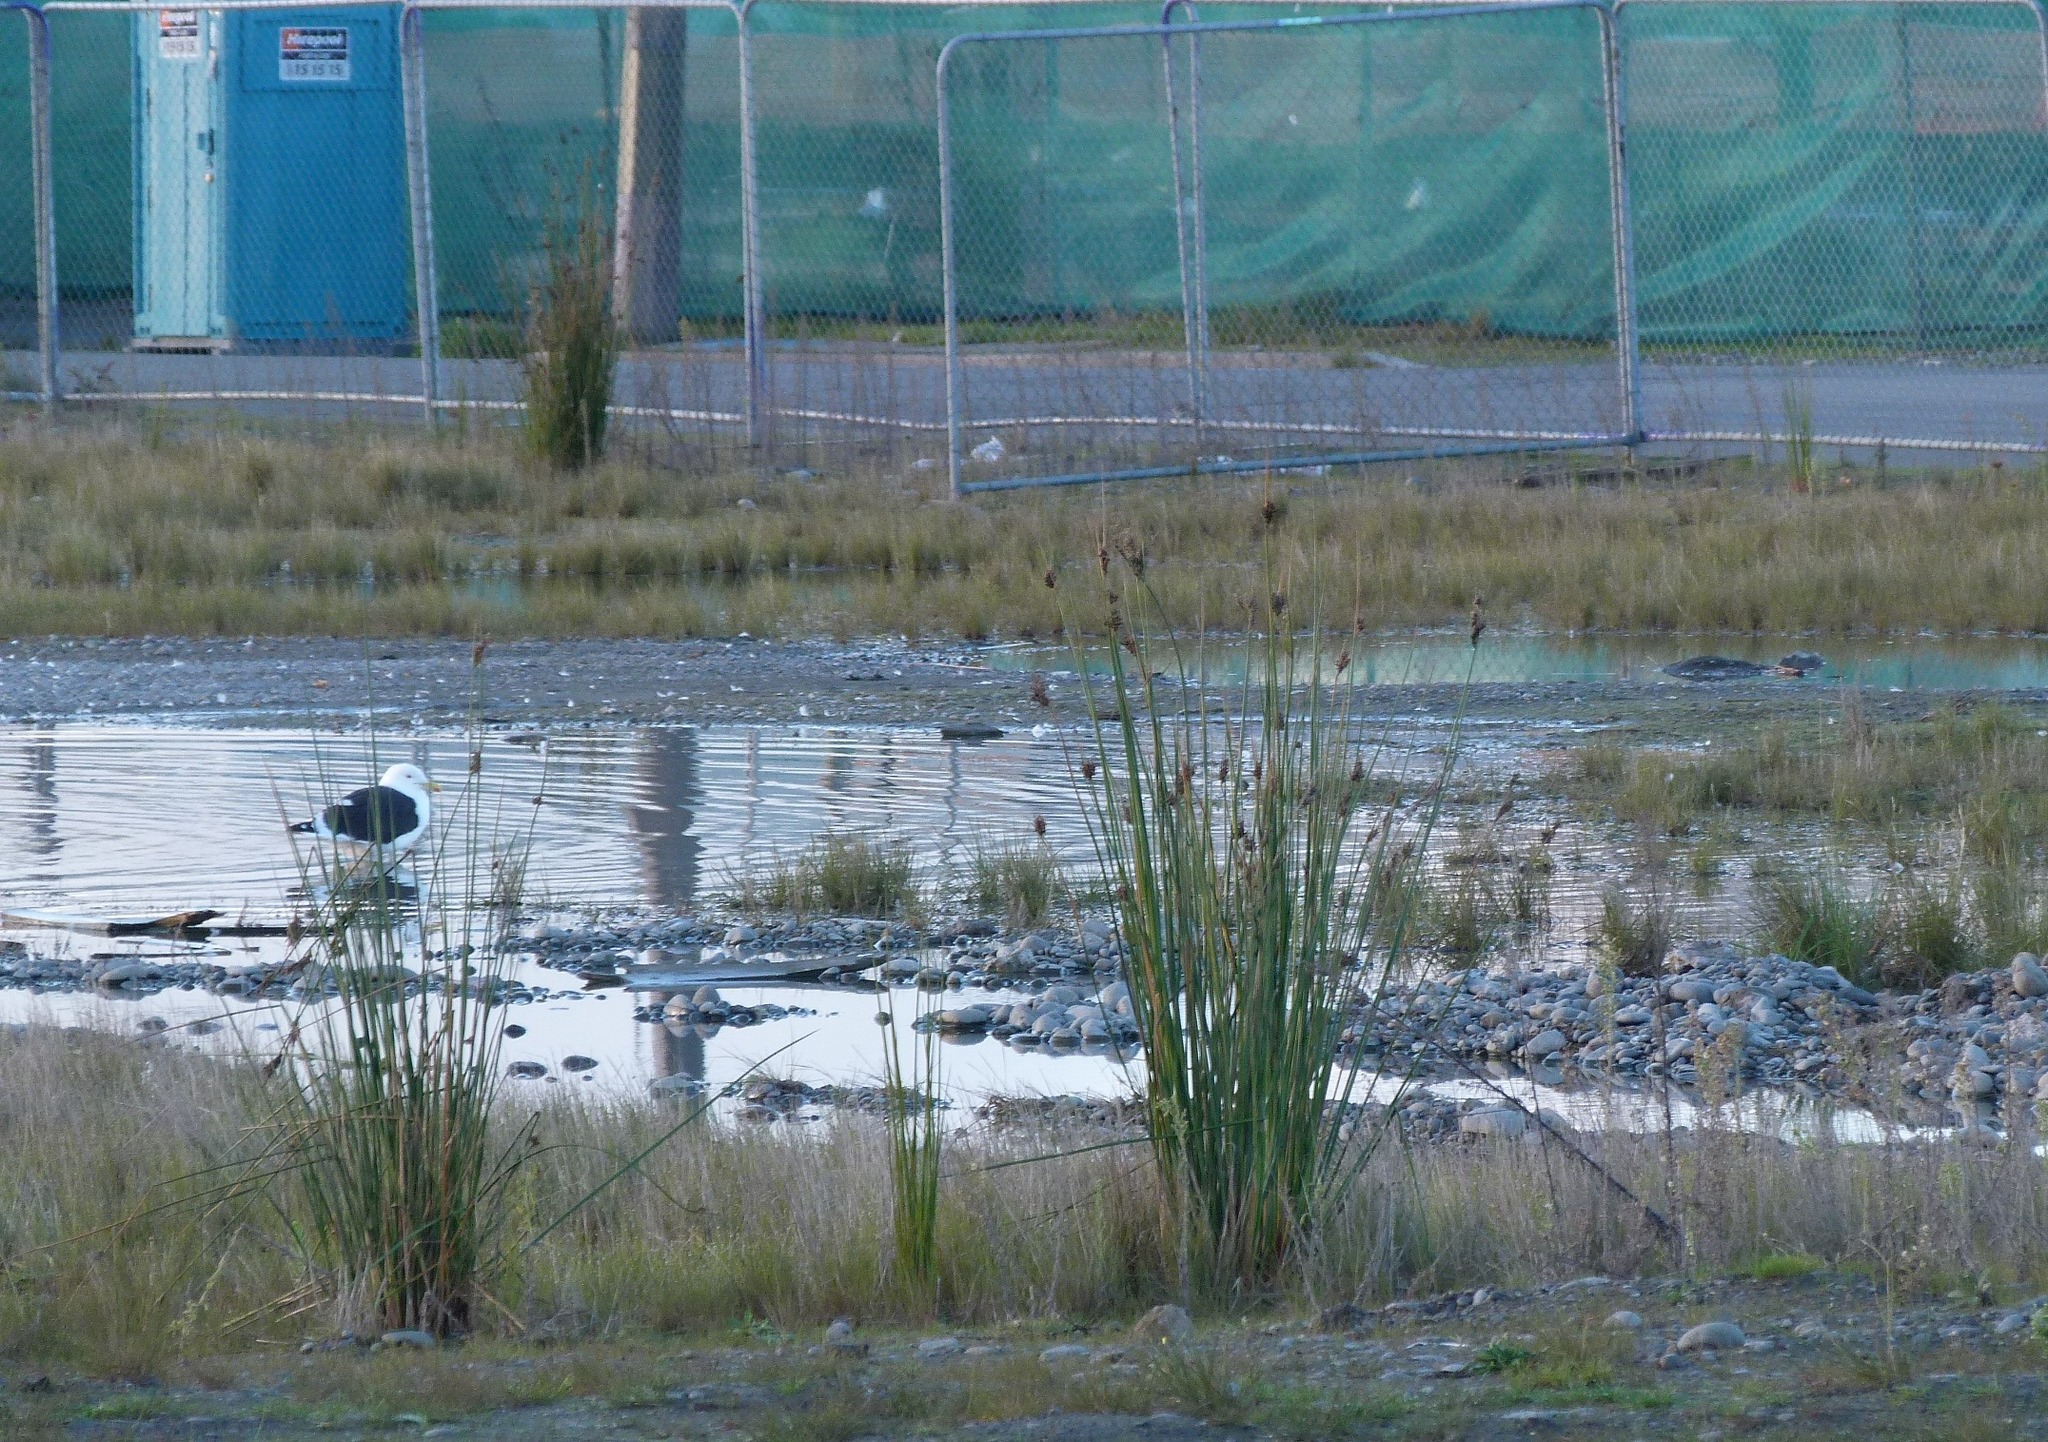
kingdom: Plantae
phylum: Tracheophyta
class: Liliopsida
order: Poales
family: Juncaceae
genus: Juncus
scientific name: Juncus pallidus
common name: Great soft-rush
